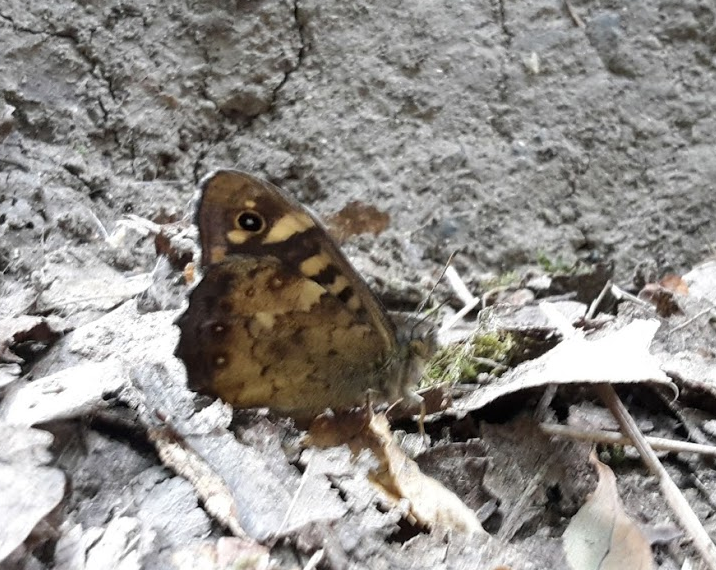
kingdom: Animalia
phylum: Arthropoda
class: Insecta
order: Lepidoptera
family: Nymphalidae
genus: Pararge
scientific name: Pararge aegeria
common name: Speckled wood
